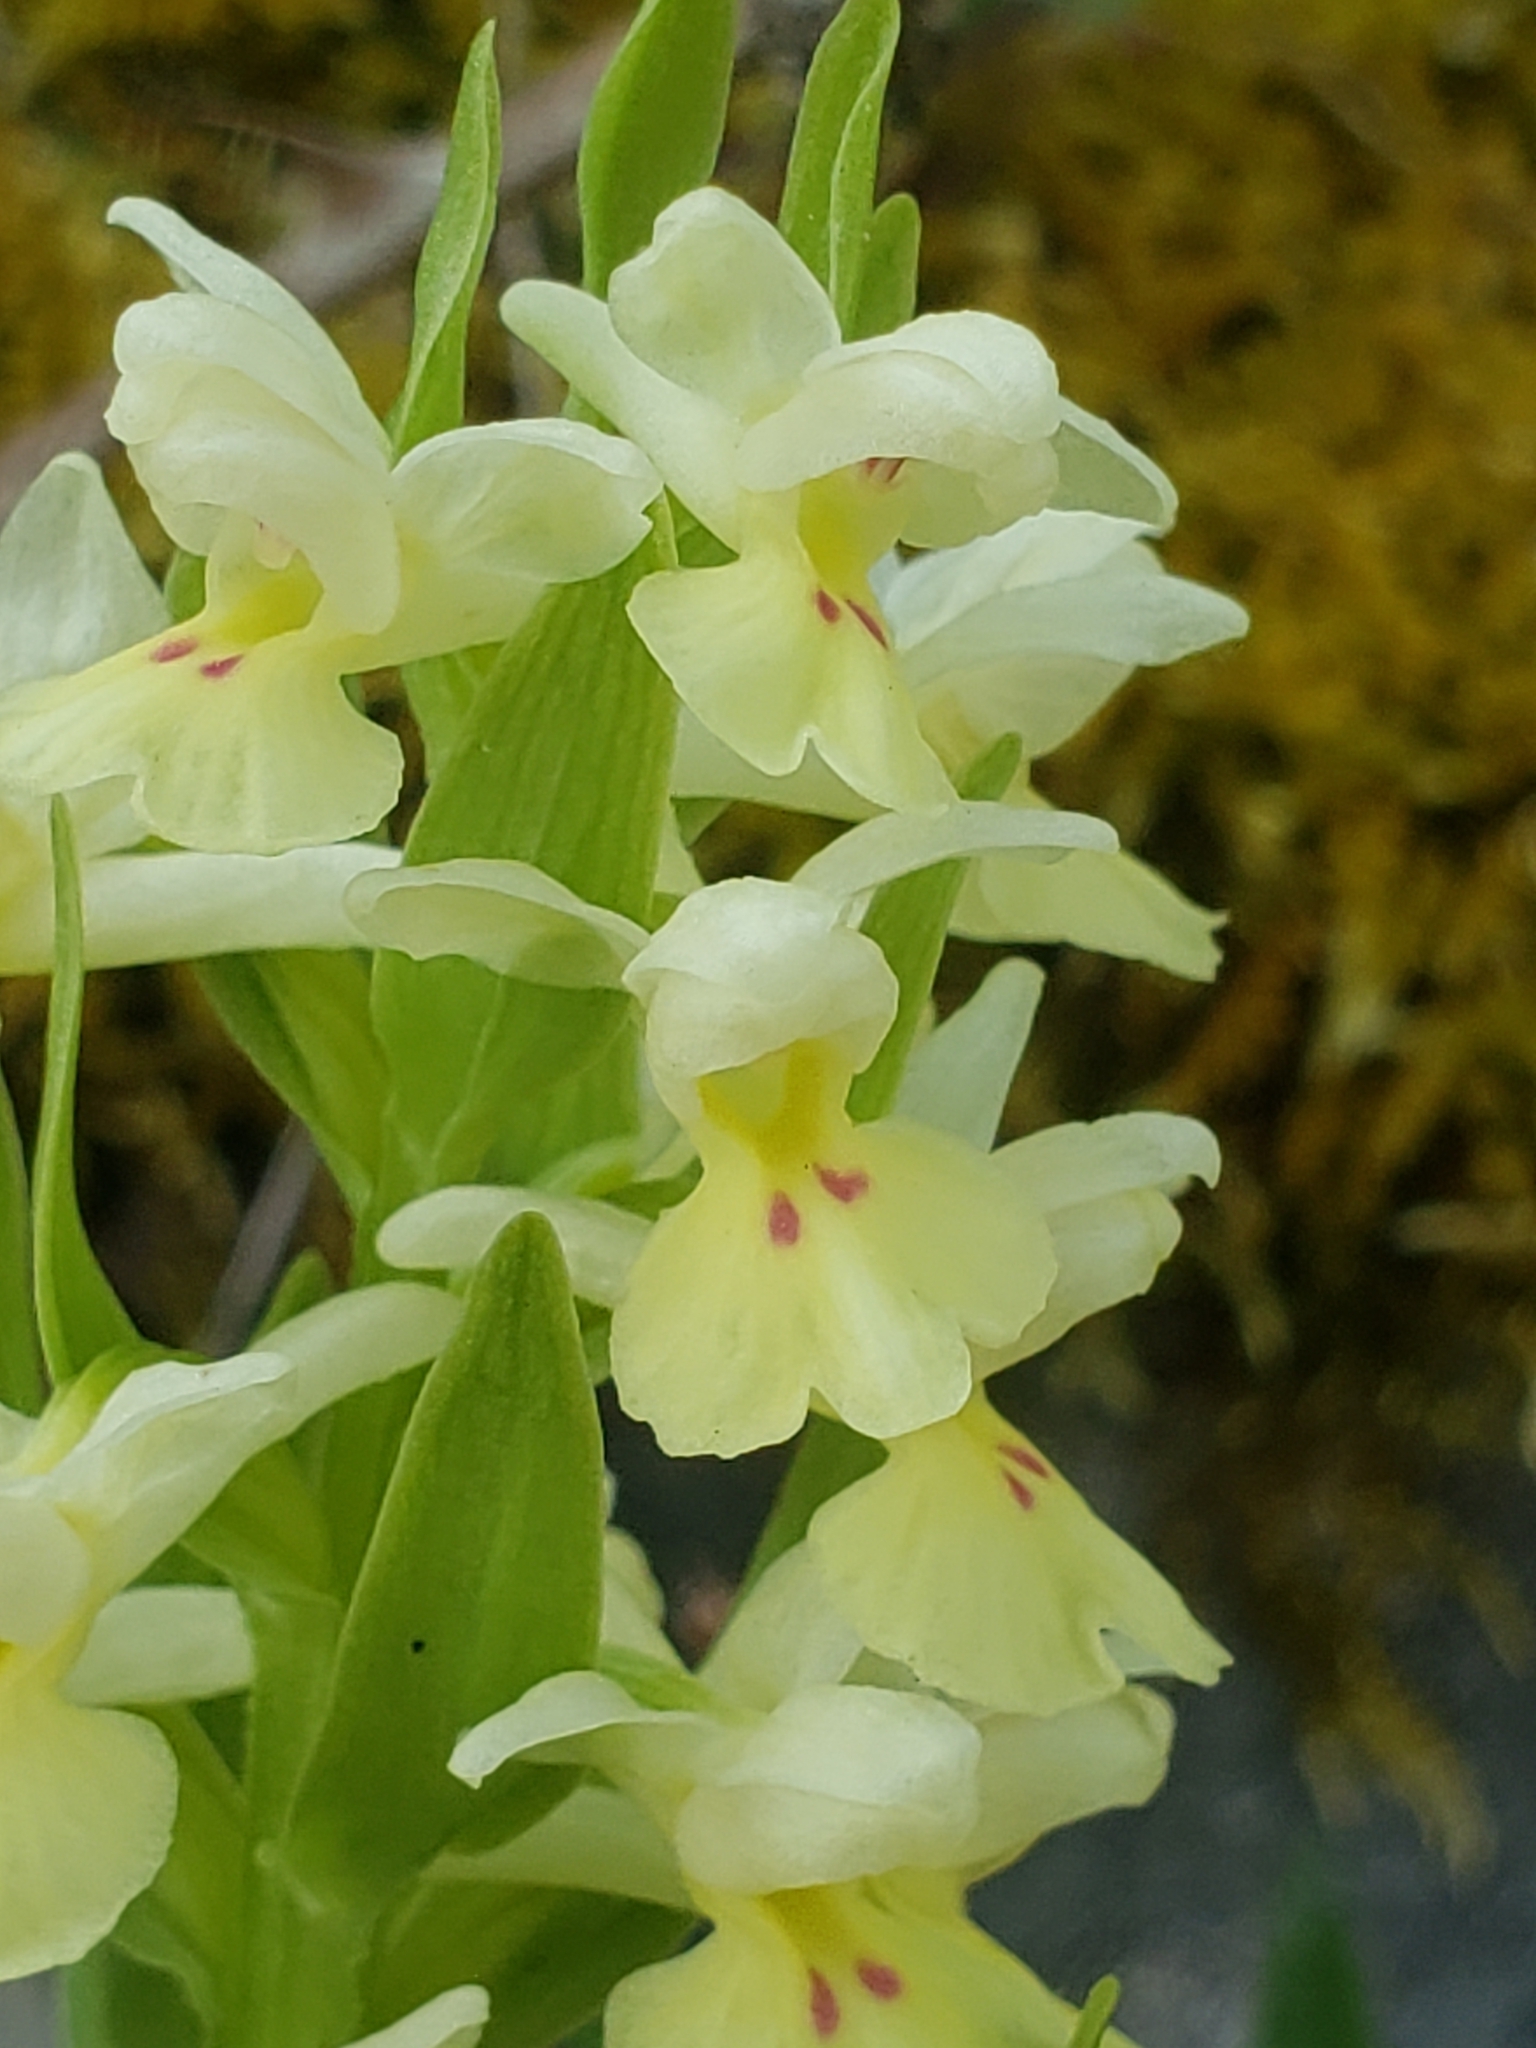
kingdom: Plantae
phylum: Tracheophyta
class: Liliopsida
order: Asparagales
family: Orchidaceae
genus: Dactylorhiza
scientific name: Dactylorhiza insularis
